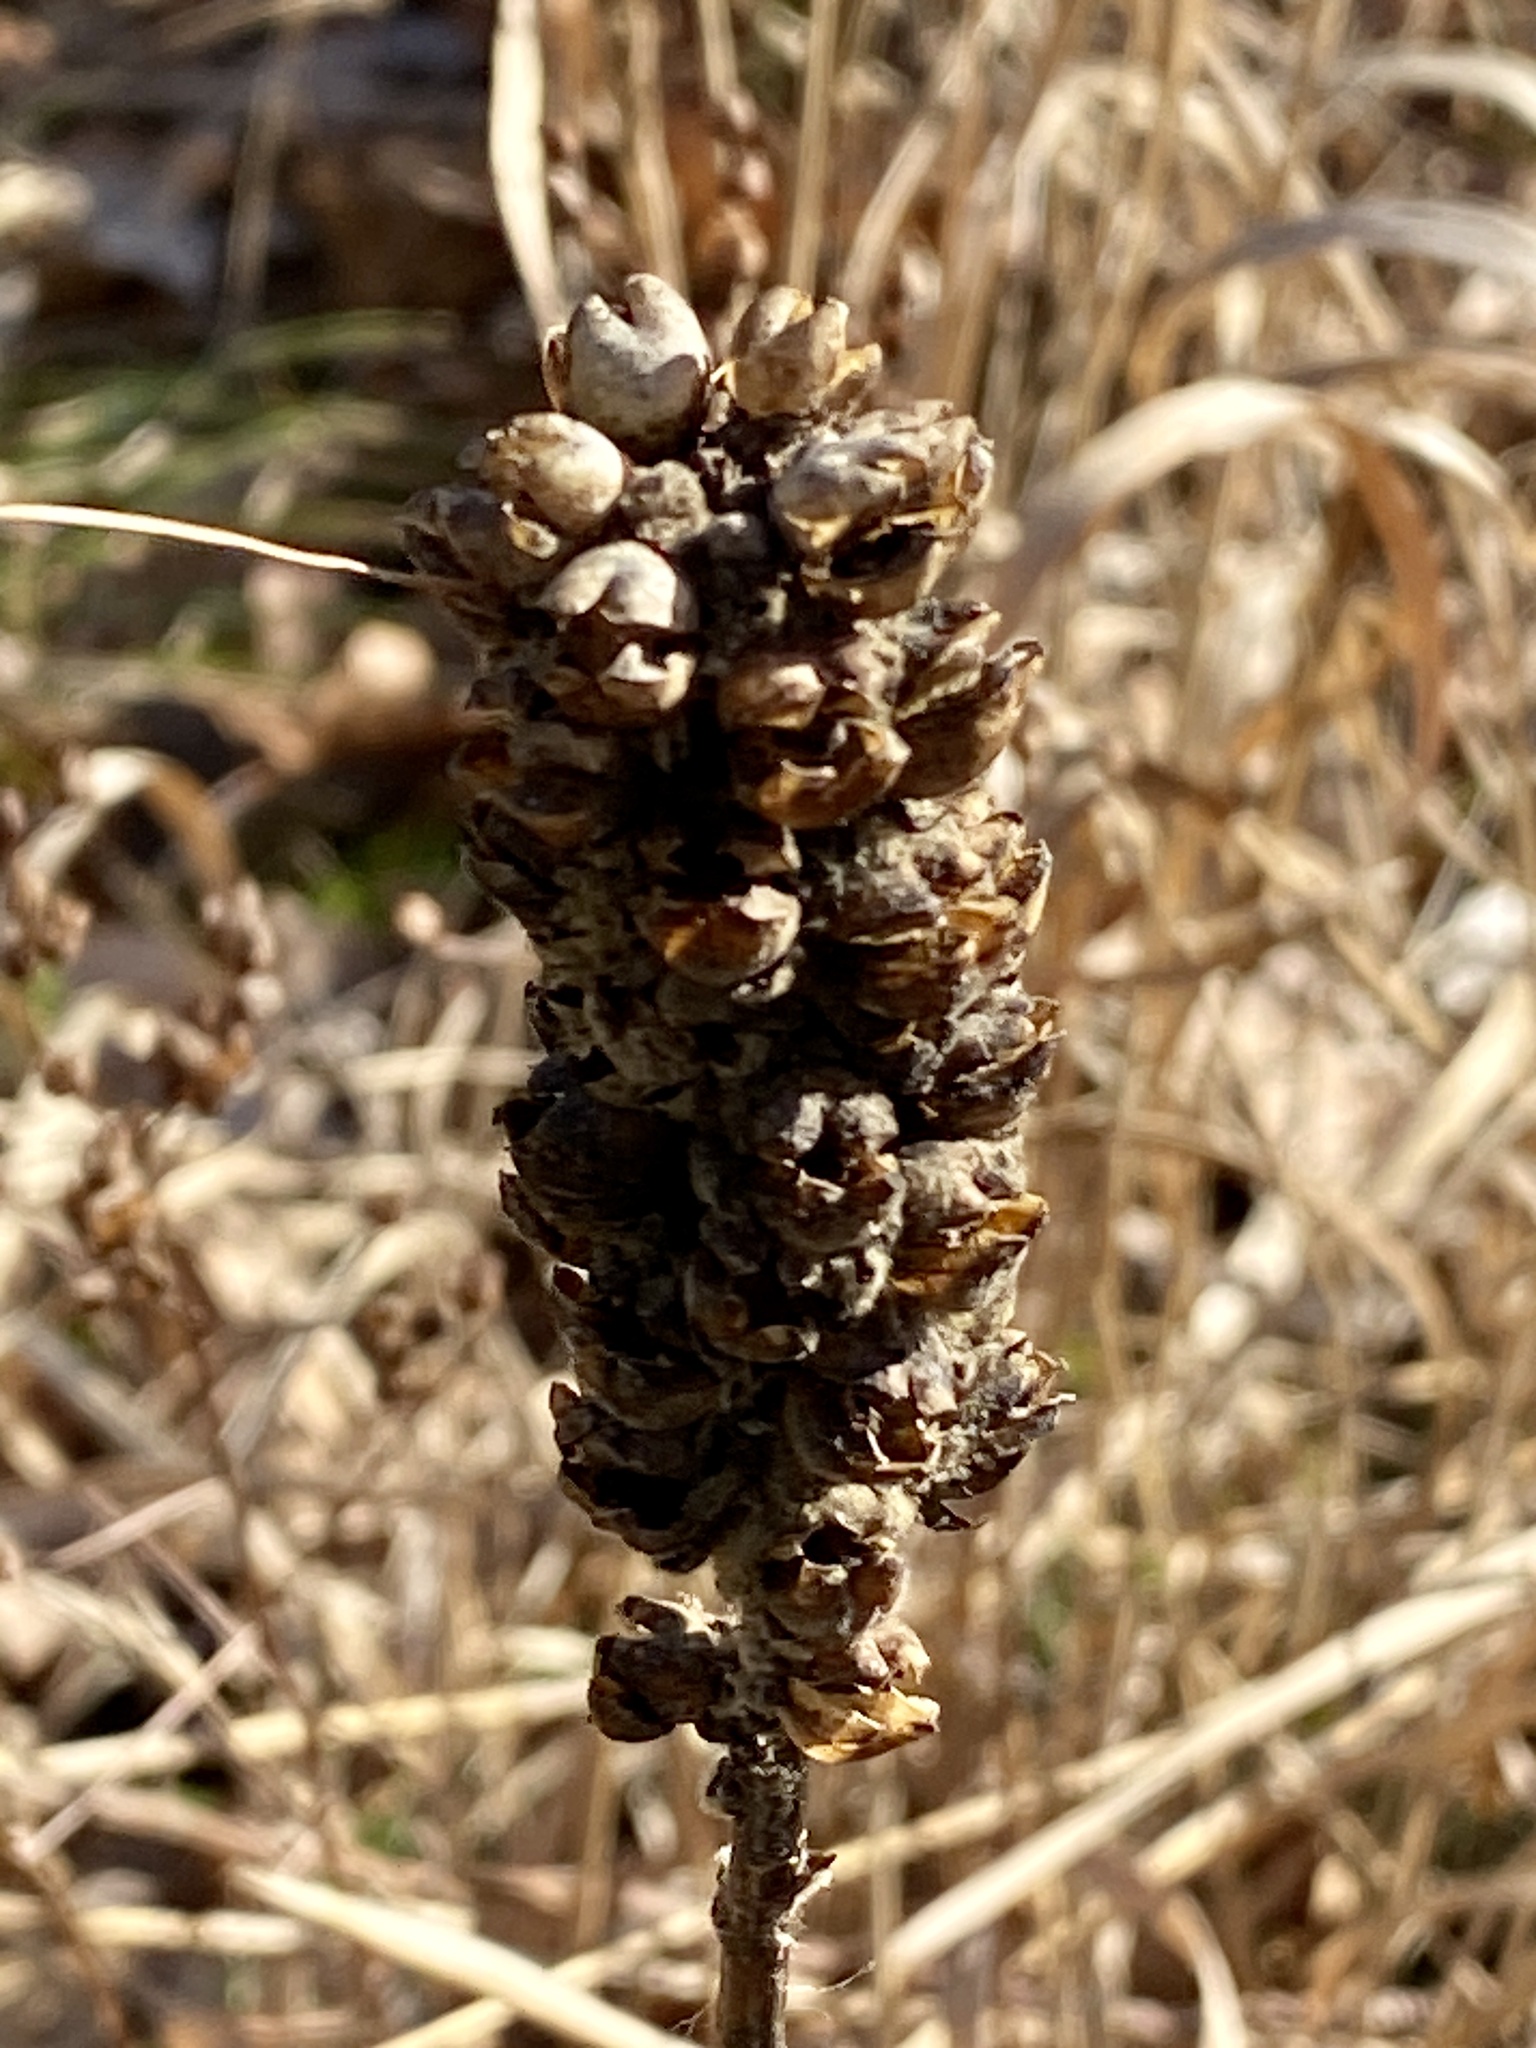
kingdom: Plantae
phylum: Tracheophyta
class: Magnoliopsida
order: Lamiales
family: Scrophulariaceae
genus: Verbascum
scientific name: Verbascum thapsus
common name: Common mullein
